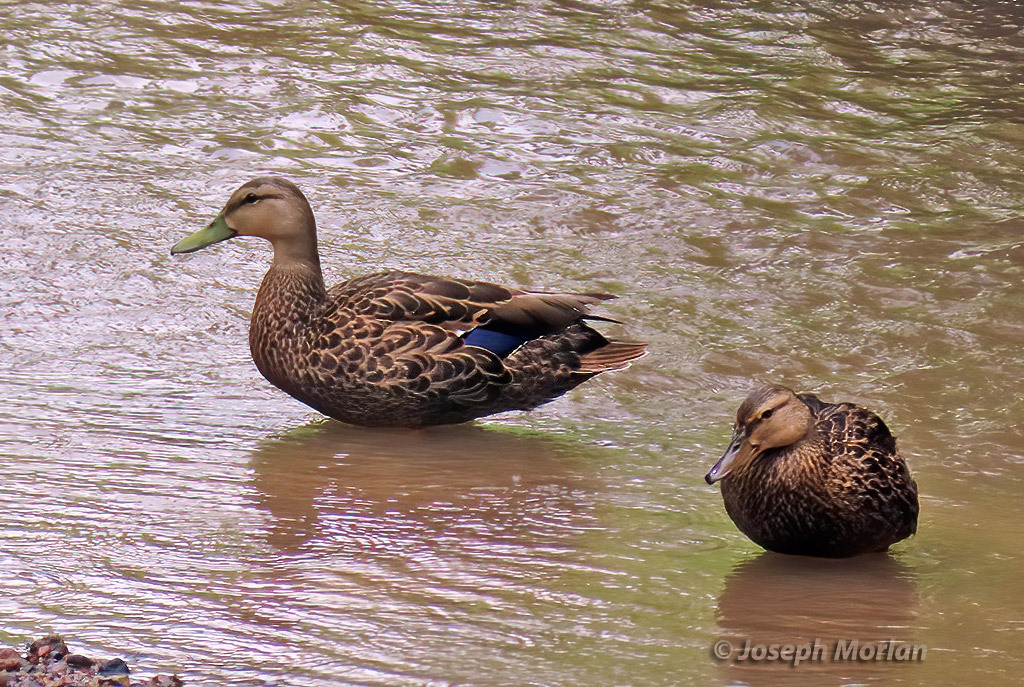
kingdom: Animalia
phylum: Chordata
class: Aves
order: Anseriformes
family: Anatidae
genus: Anas
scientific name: Anas diazi
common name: Mexican duck
